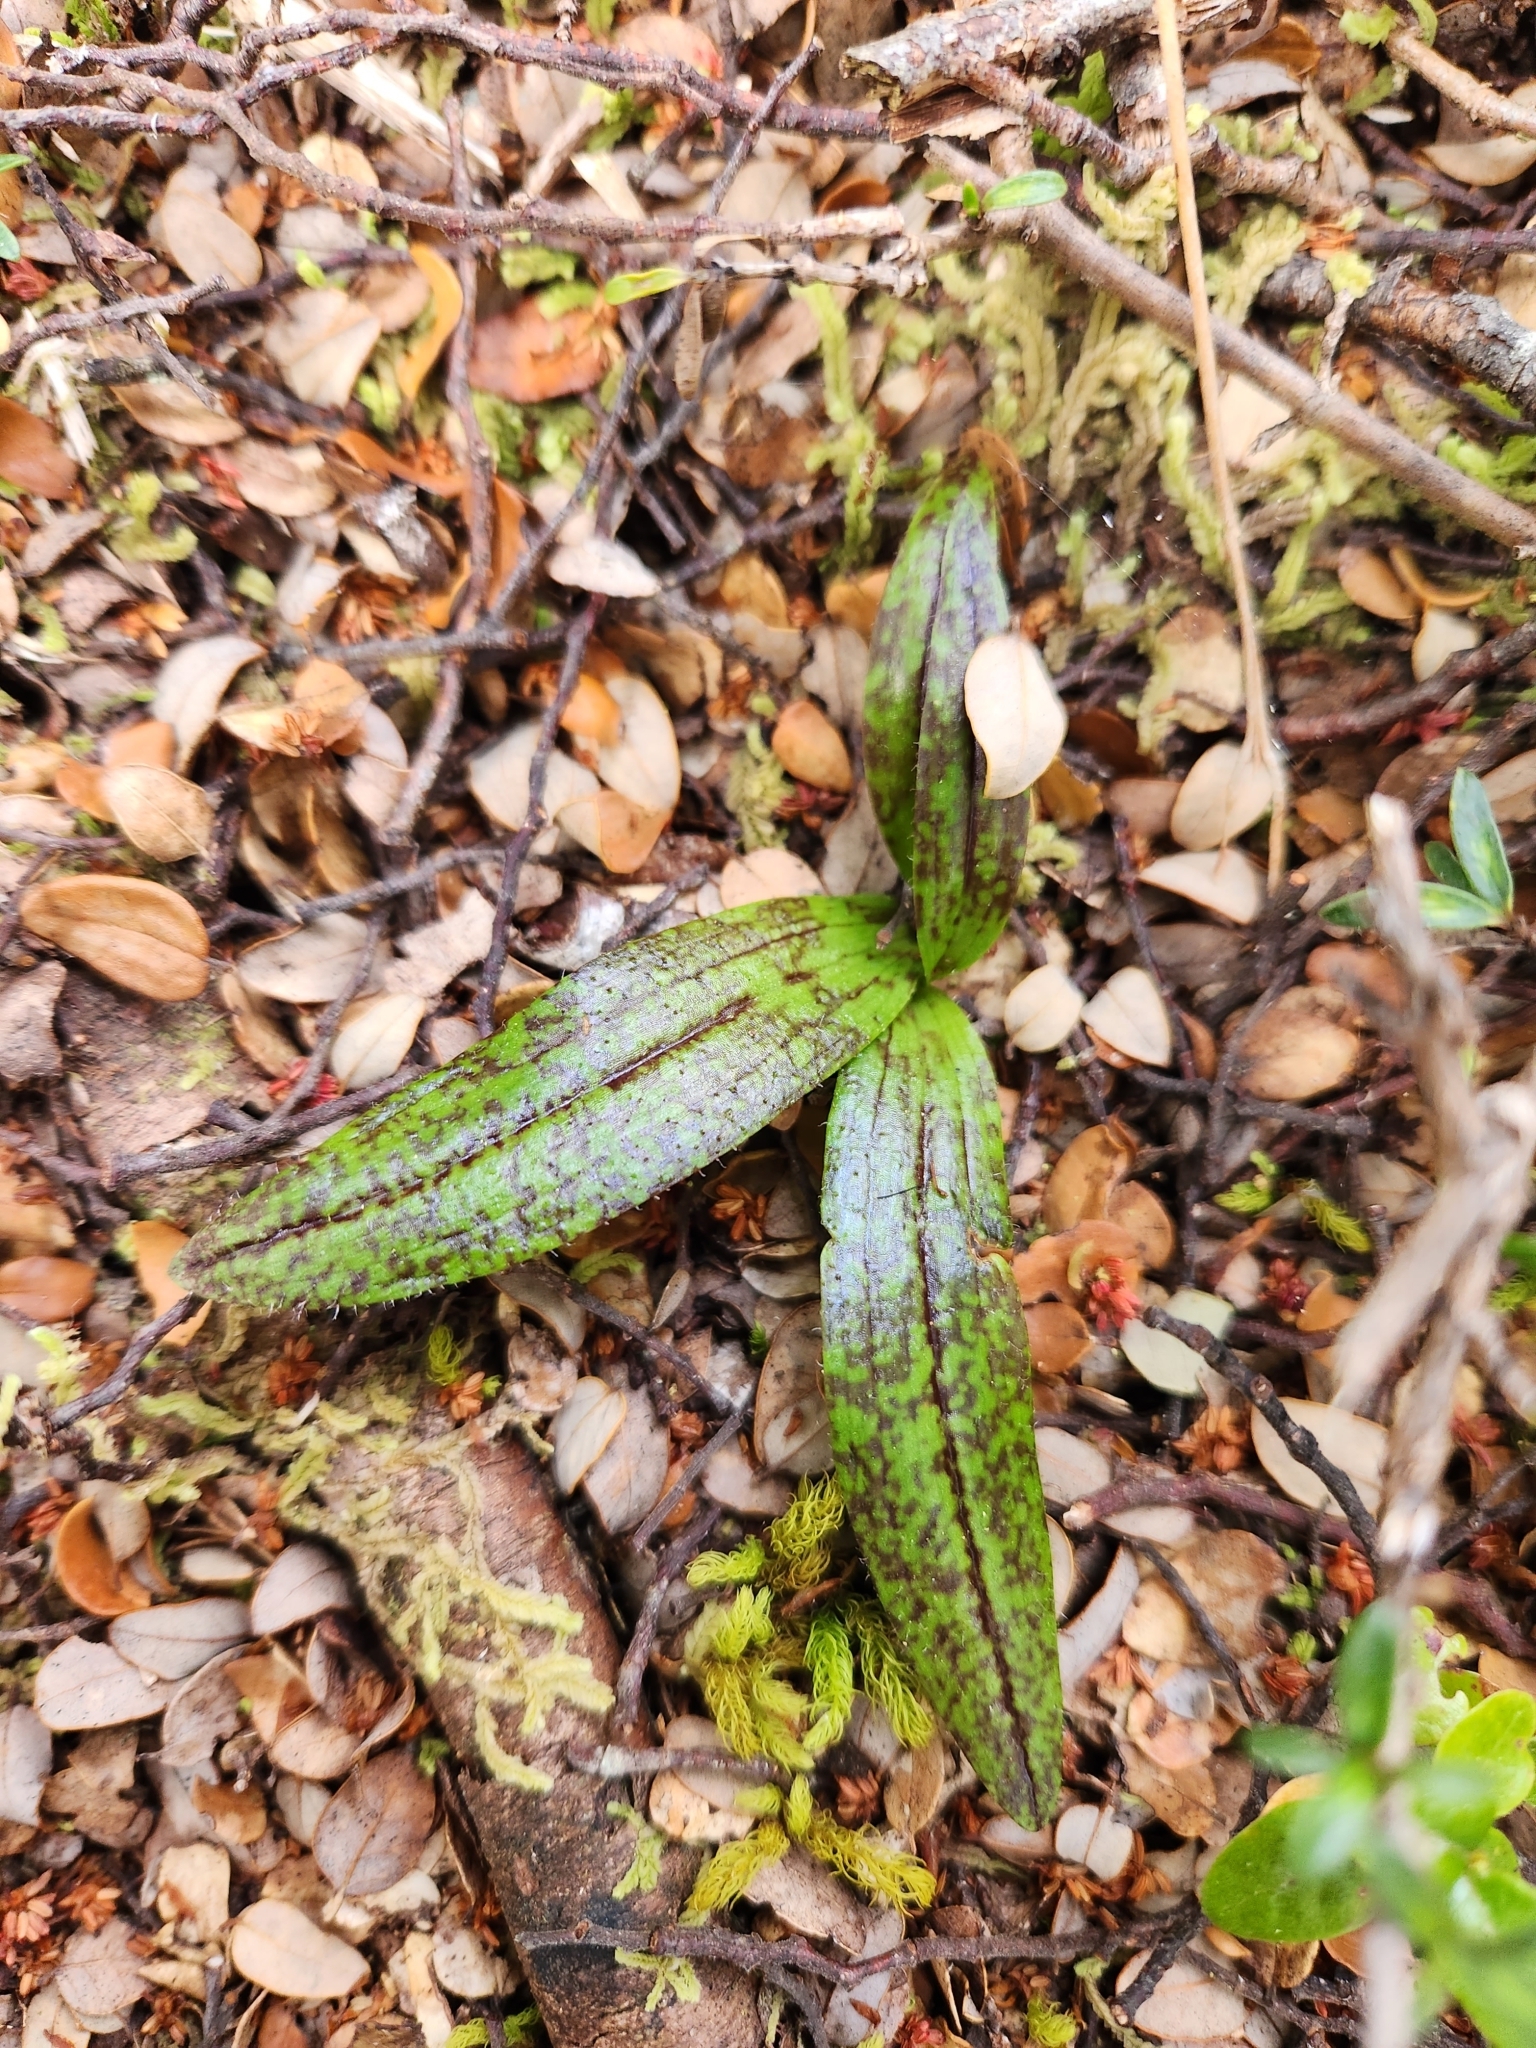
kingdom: Plantae
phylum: Tracheophyta
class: Liliopsida
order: Asparagales
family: Orchidaceae
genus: Aporostylis
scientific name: Aporostylis bifolia
